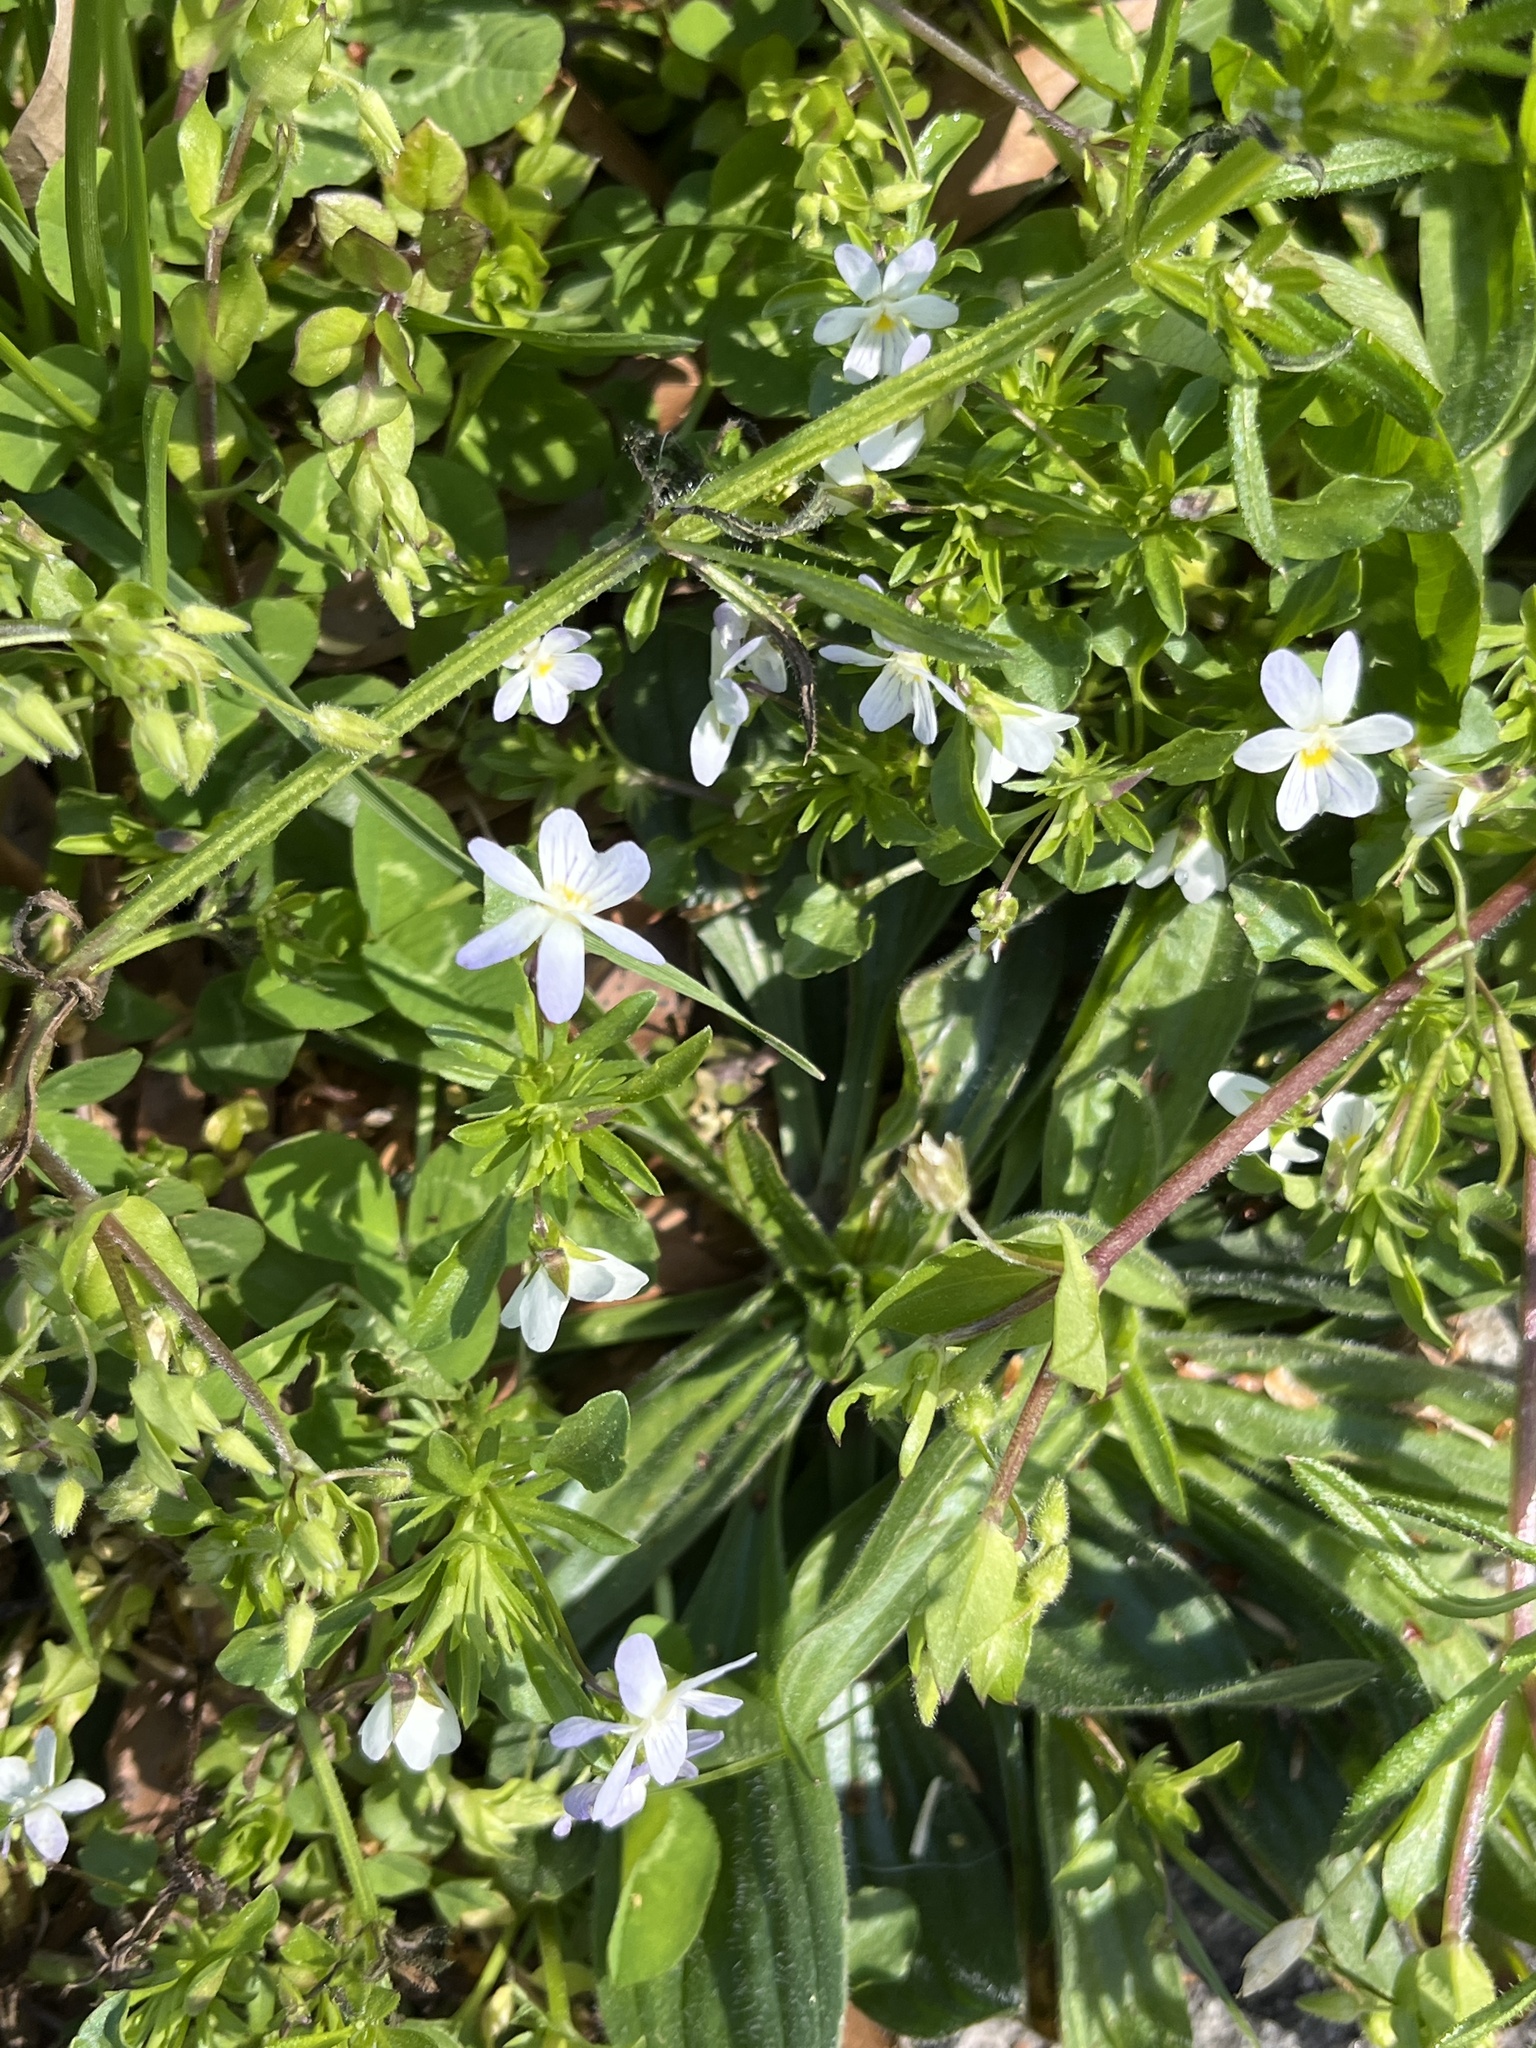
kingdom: Plantae
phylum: Tracheophyta
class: Magnoliopsida
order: Malpighiales
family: Violaceae
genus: Viola
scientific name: Viola rafinesquei
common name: American field pansy
